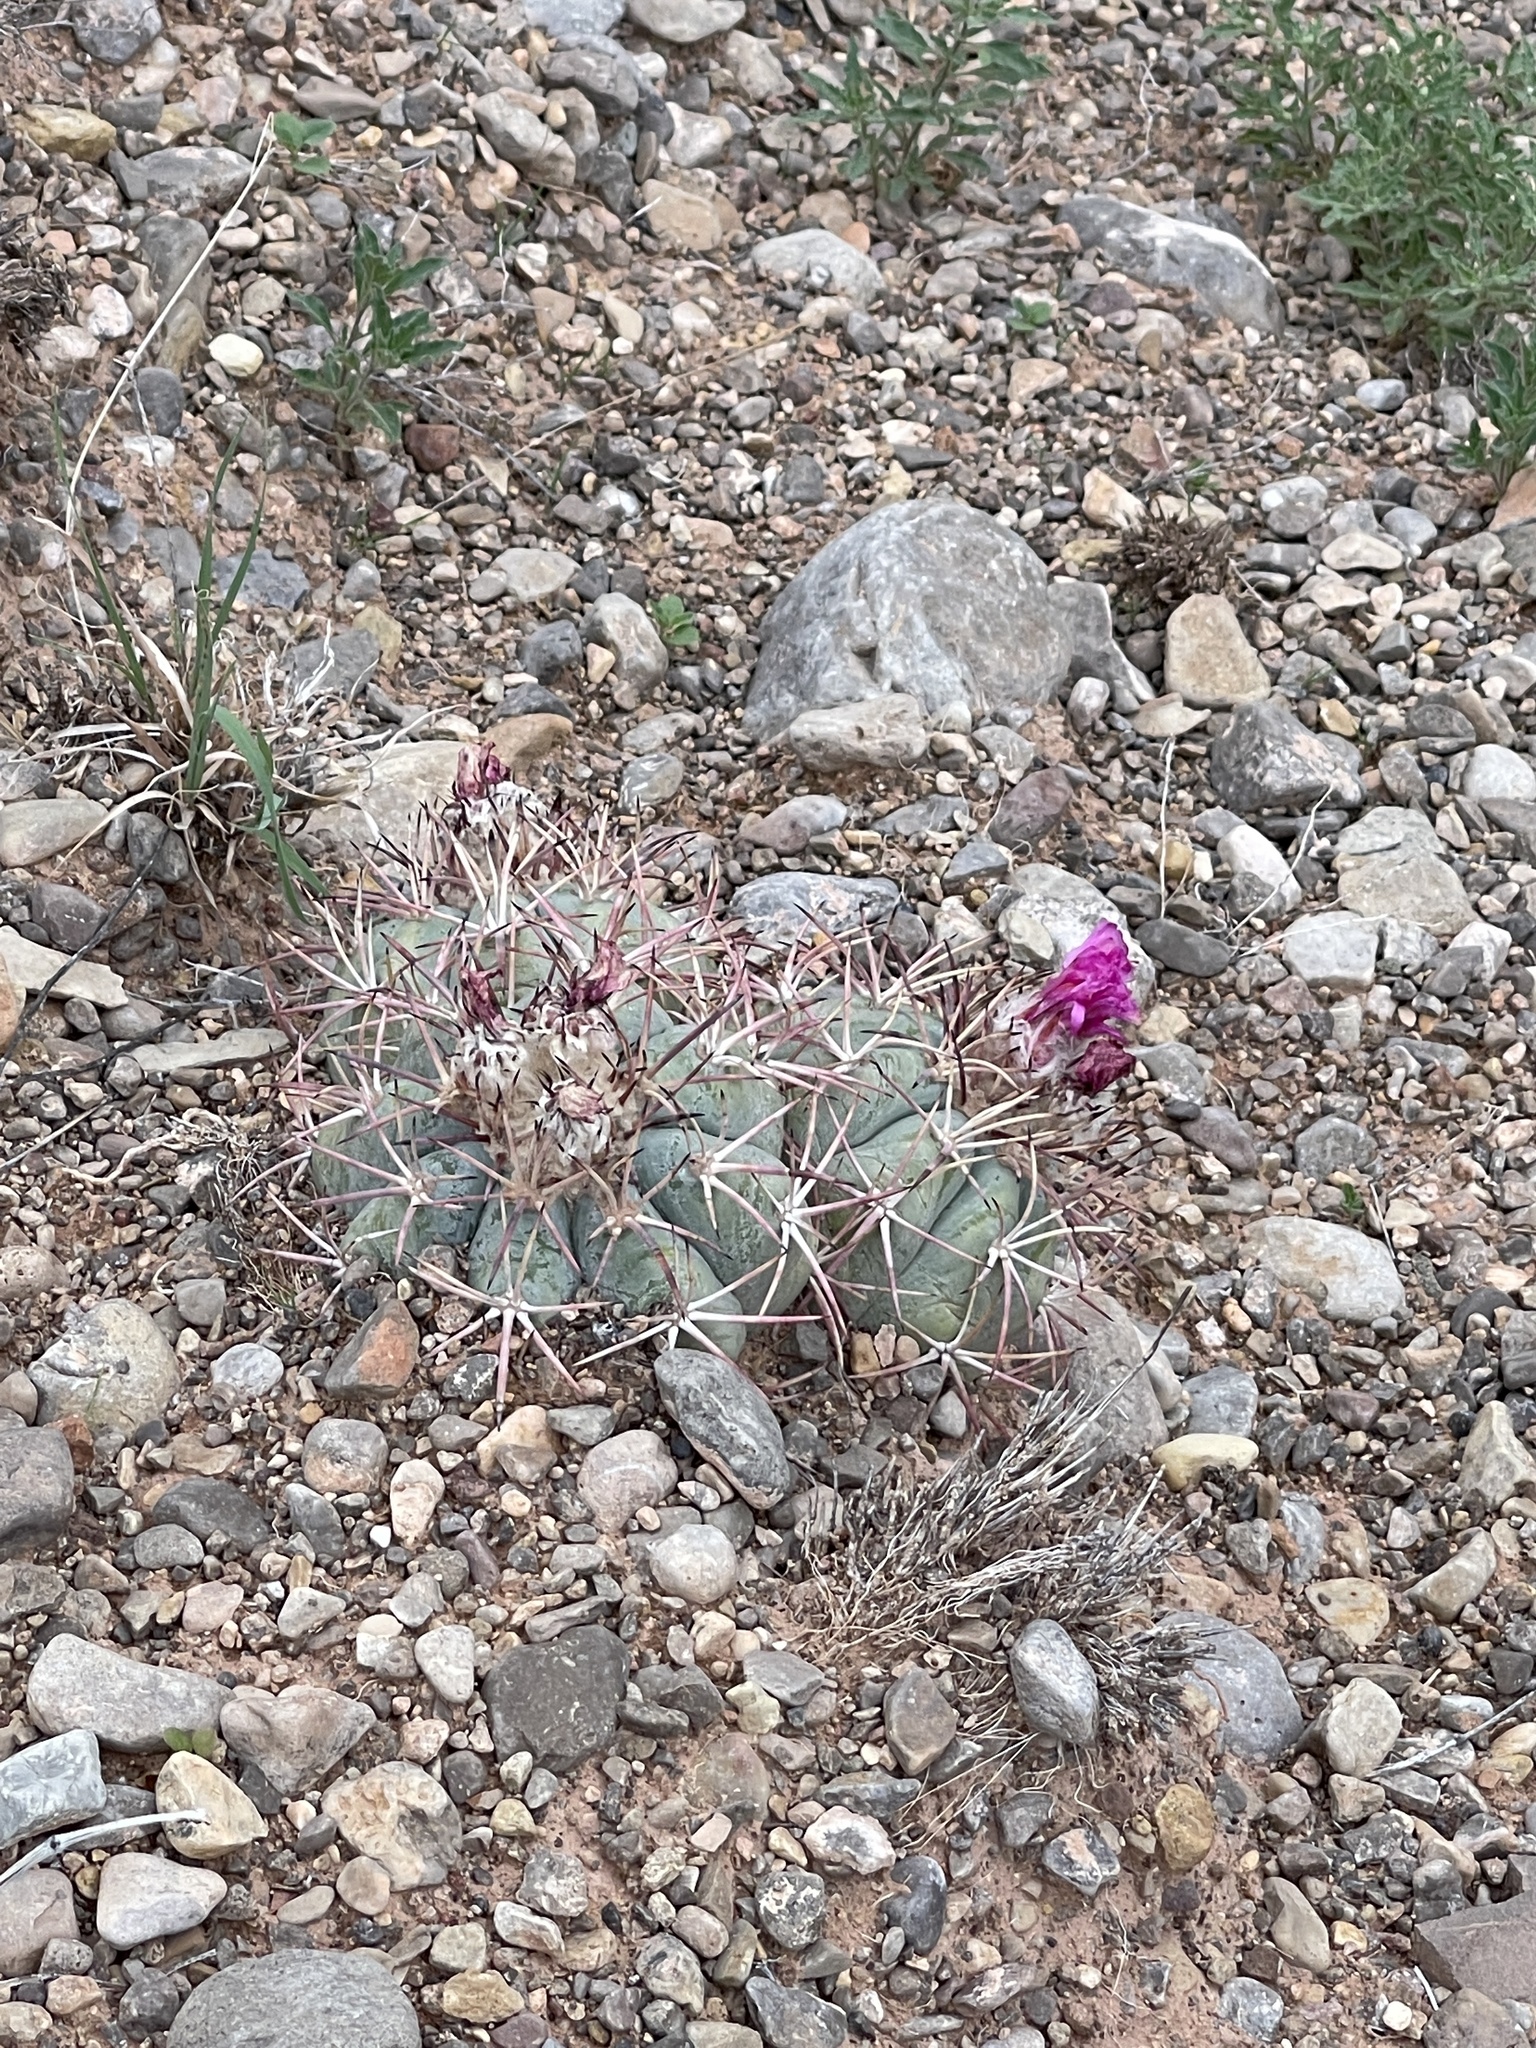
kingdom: Plantae
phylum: Tracheophyta
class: Magnoliopsida
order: Caryophyllales
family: Cactaceae
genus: Echinocactus
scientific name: Echinocactus horizonthalonius
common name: Devilshead
